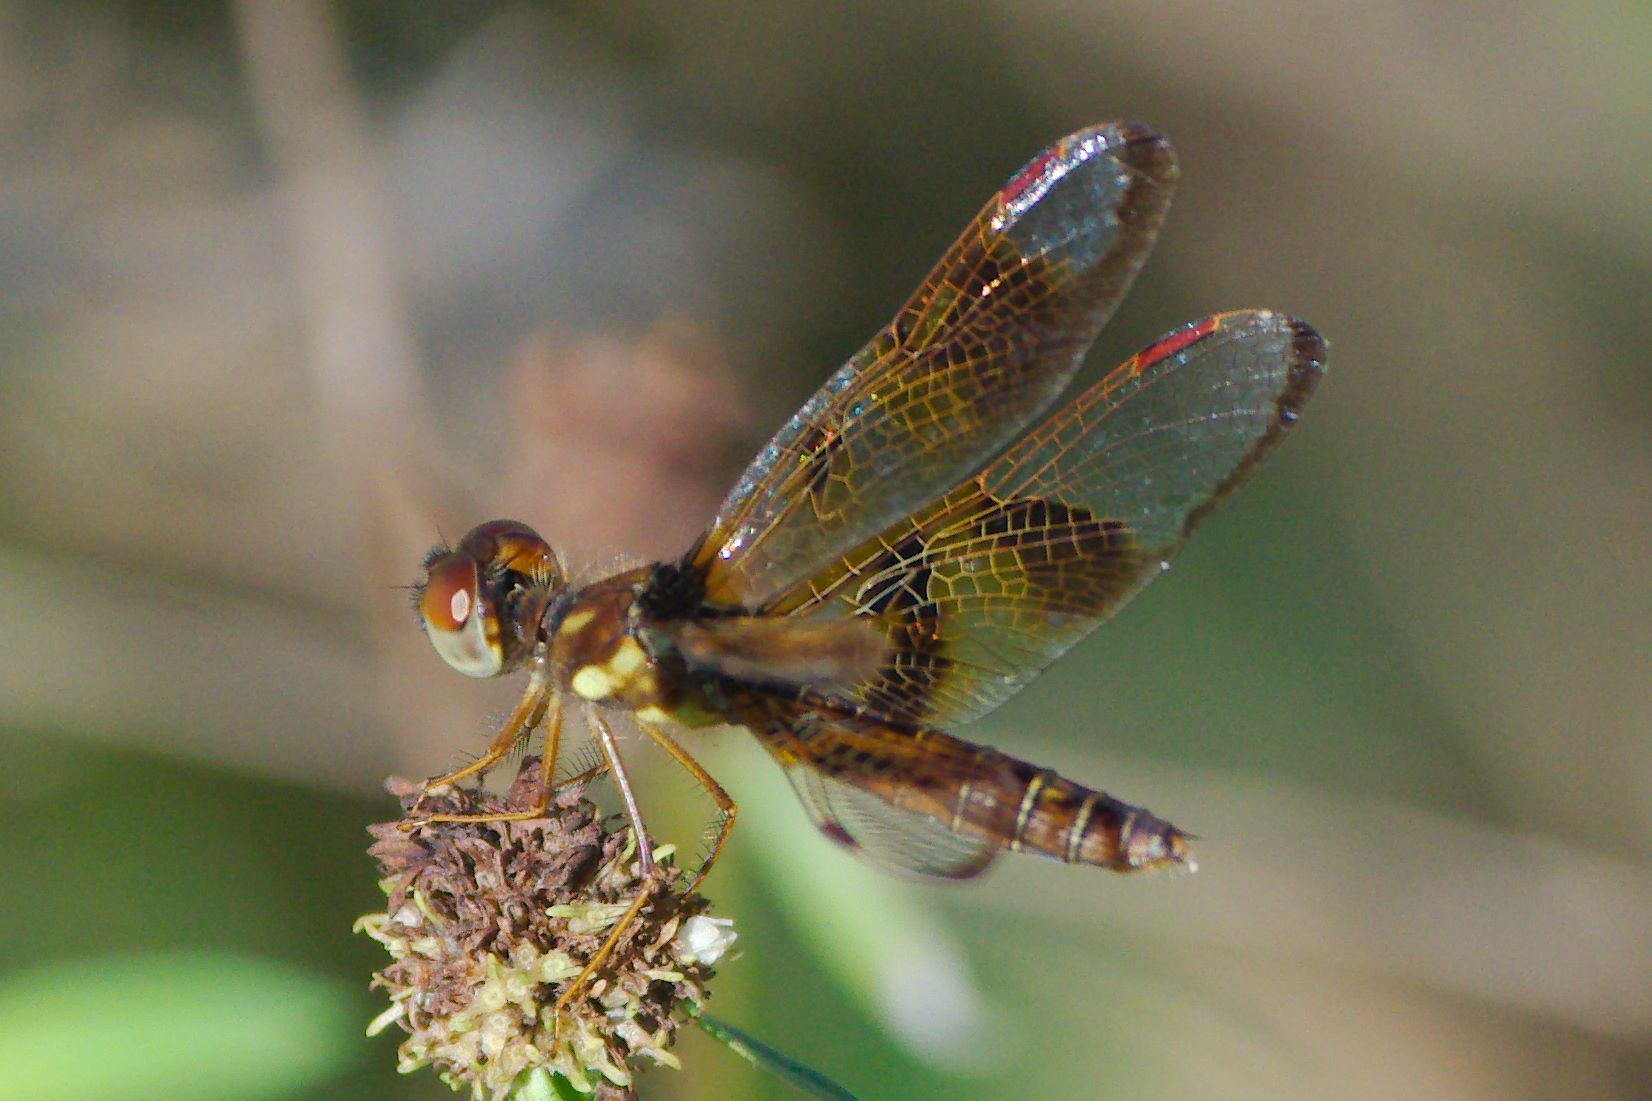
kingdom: Animalia
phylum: Arthropoda
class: Insecta
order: Odonata
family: Libellulidae
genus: Perithemis
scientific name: Perithemis tenera
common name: Eastern amberwing
